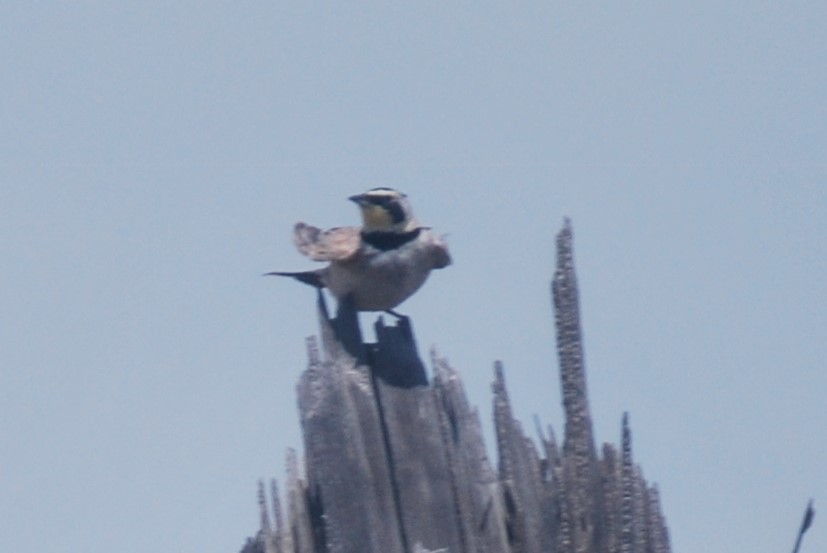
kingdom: Animalia
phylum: Chordata
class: Aves
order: Passeriformes
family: Alaudidae
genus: Eremophila
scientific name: Eremophila alpestris
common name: Horned lark
